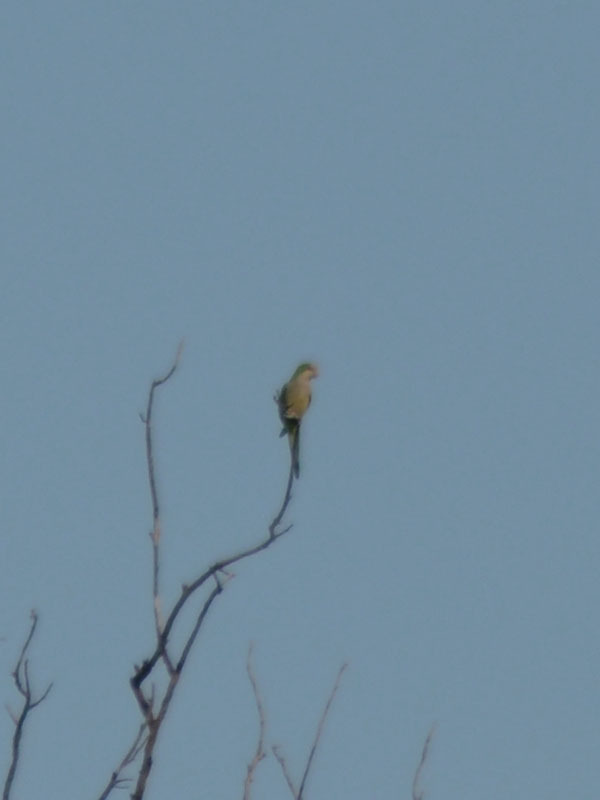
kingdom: Animalia
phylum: Chordata
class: Aves
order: Psittaciformes
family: Psittacidae
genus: Myiopsitta
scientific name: Myiopsitta monachus
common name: Monk parakeet
